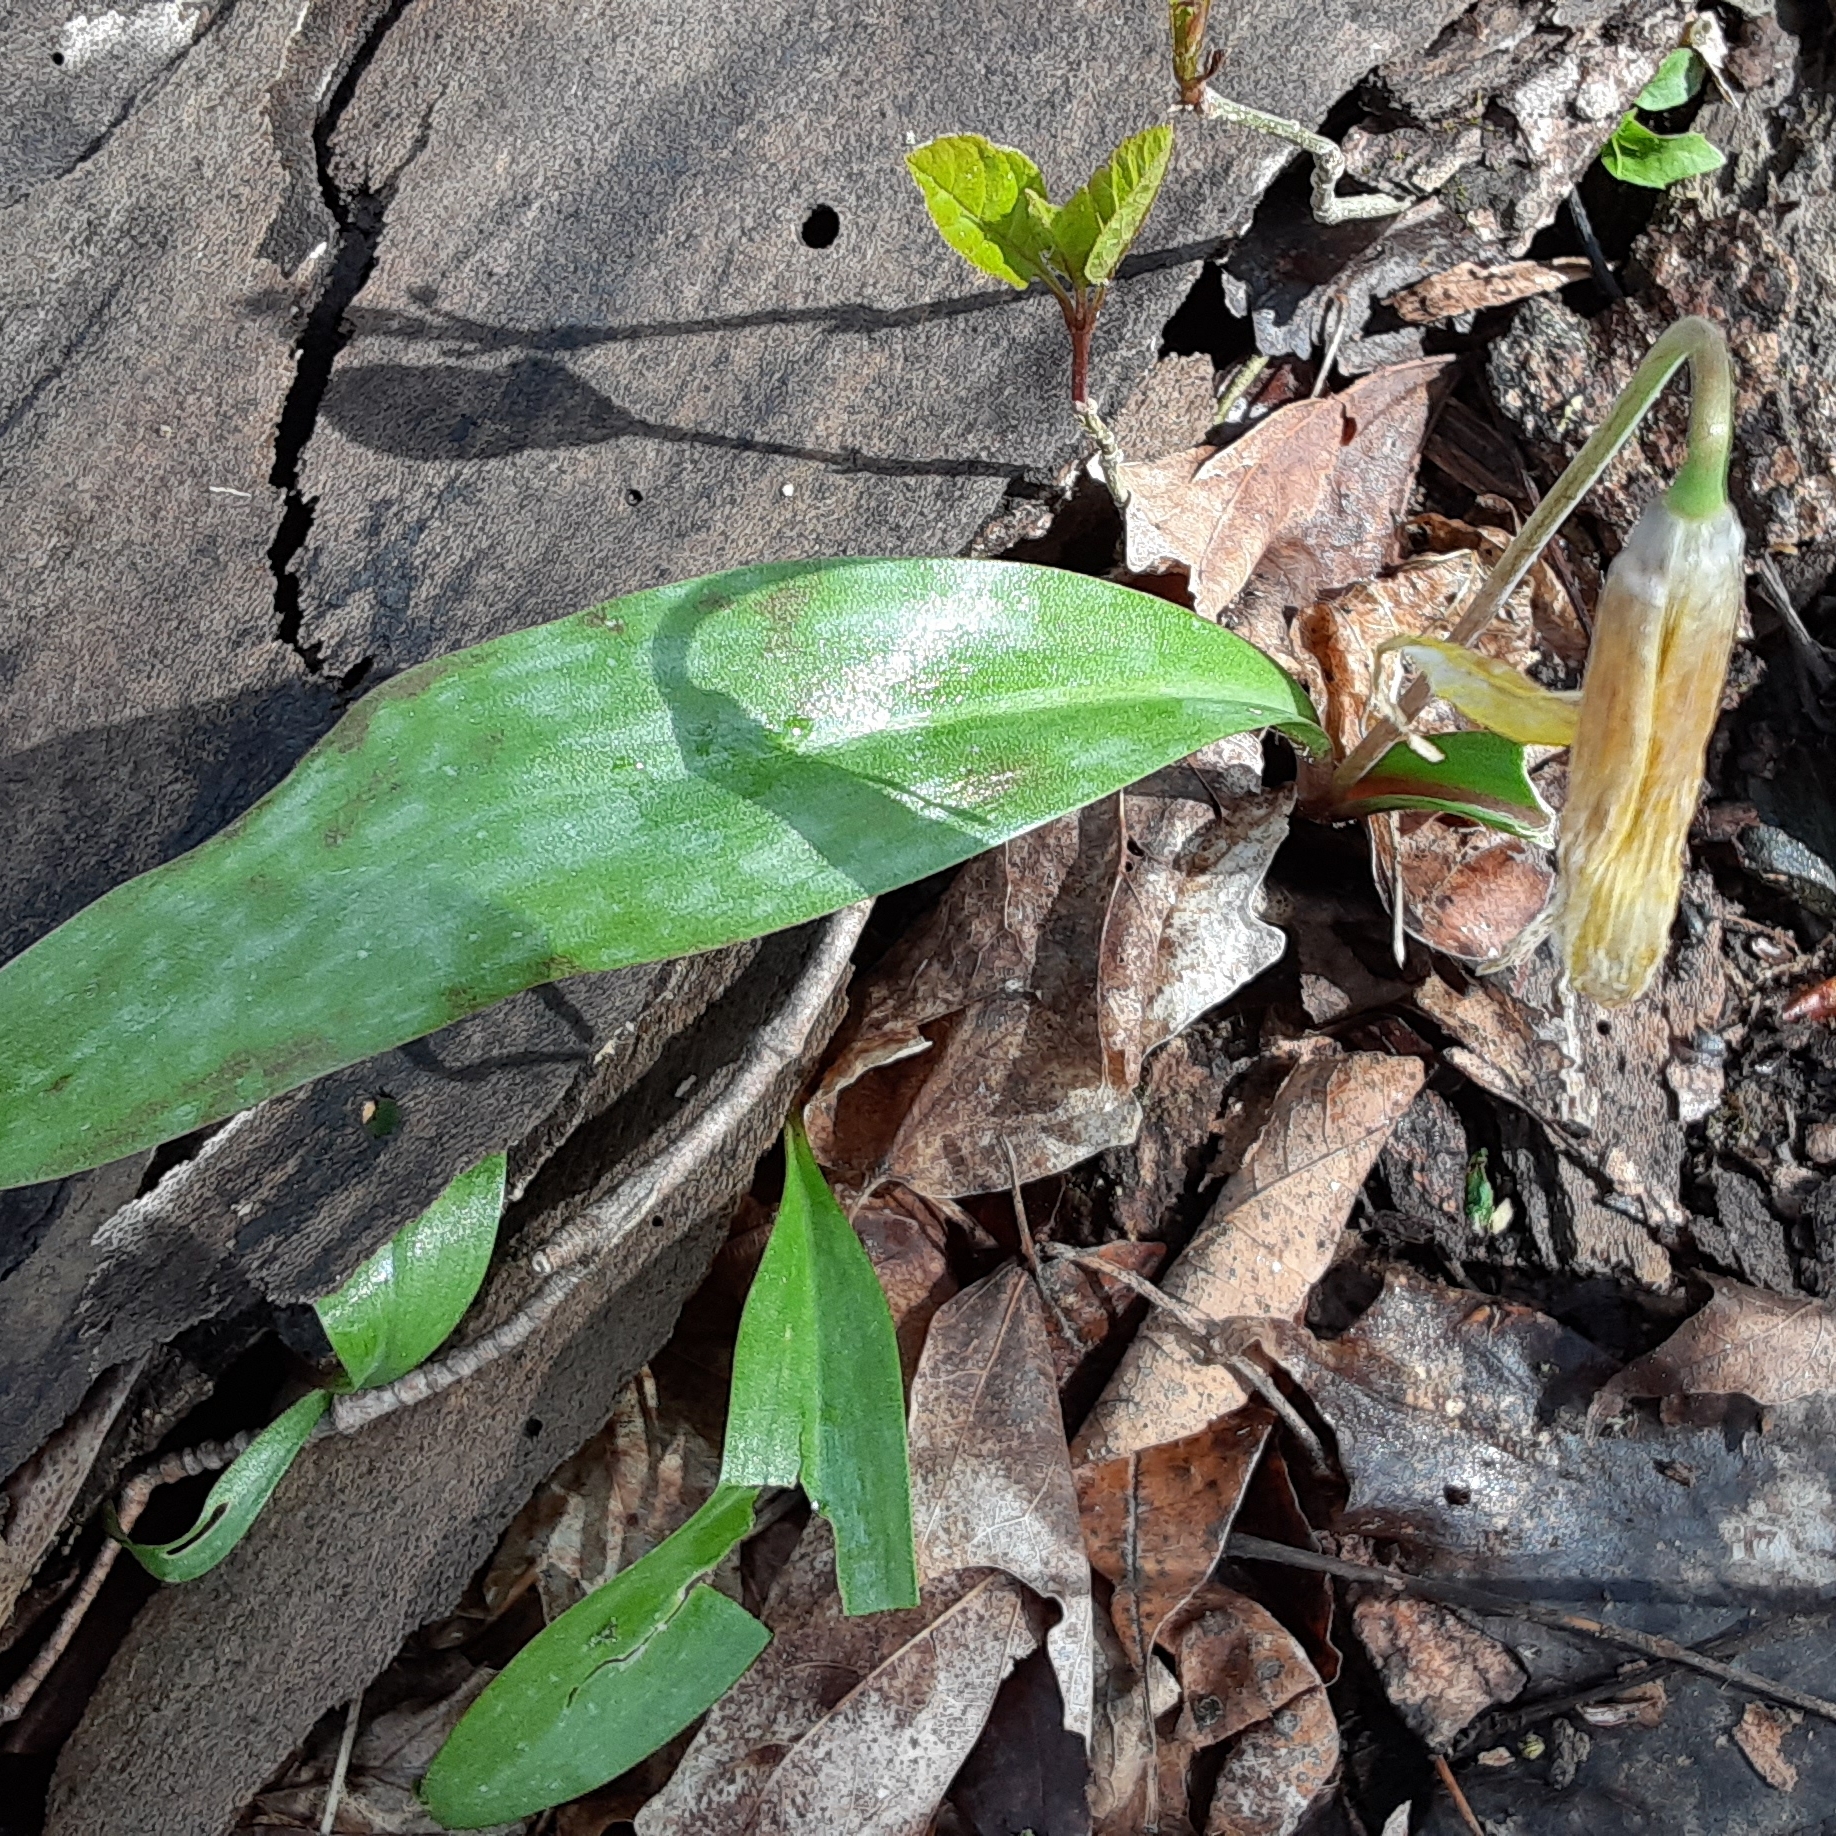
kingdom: Plantae
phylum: Tracheophyta
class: Liliopsida
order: Liliales
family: Liliaceae
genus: Erythronium
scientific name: Erythronium americanum
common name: Yellow adder's-tongue
